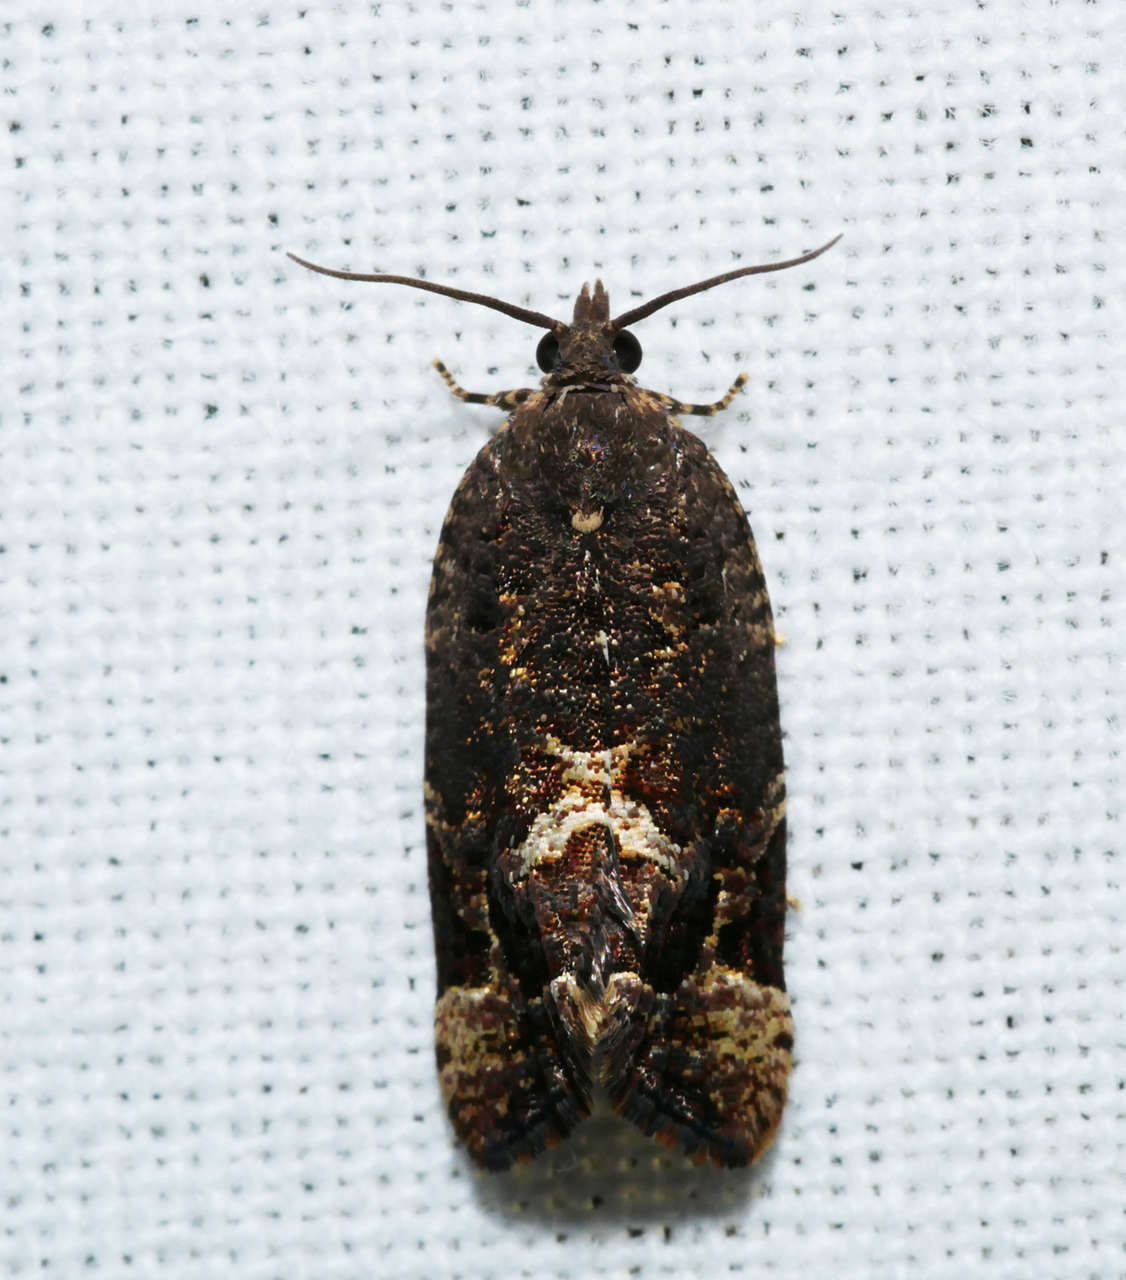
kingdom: Animalia
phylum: Arthropoda
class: Insecta
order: Lepidoptera
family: Tortricidae
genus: Epitymbia
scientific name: Epitymbia alaudana
